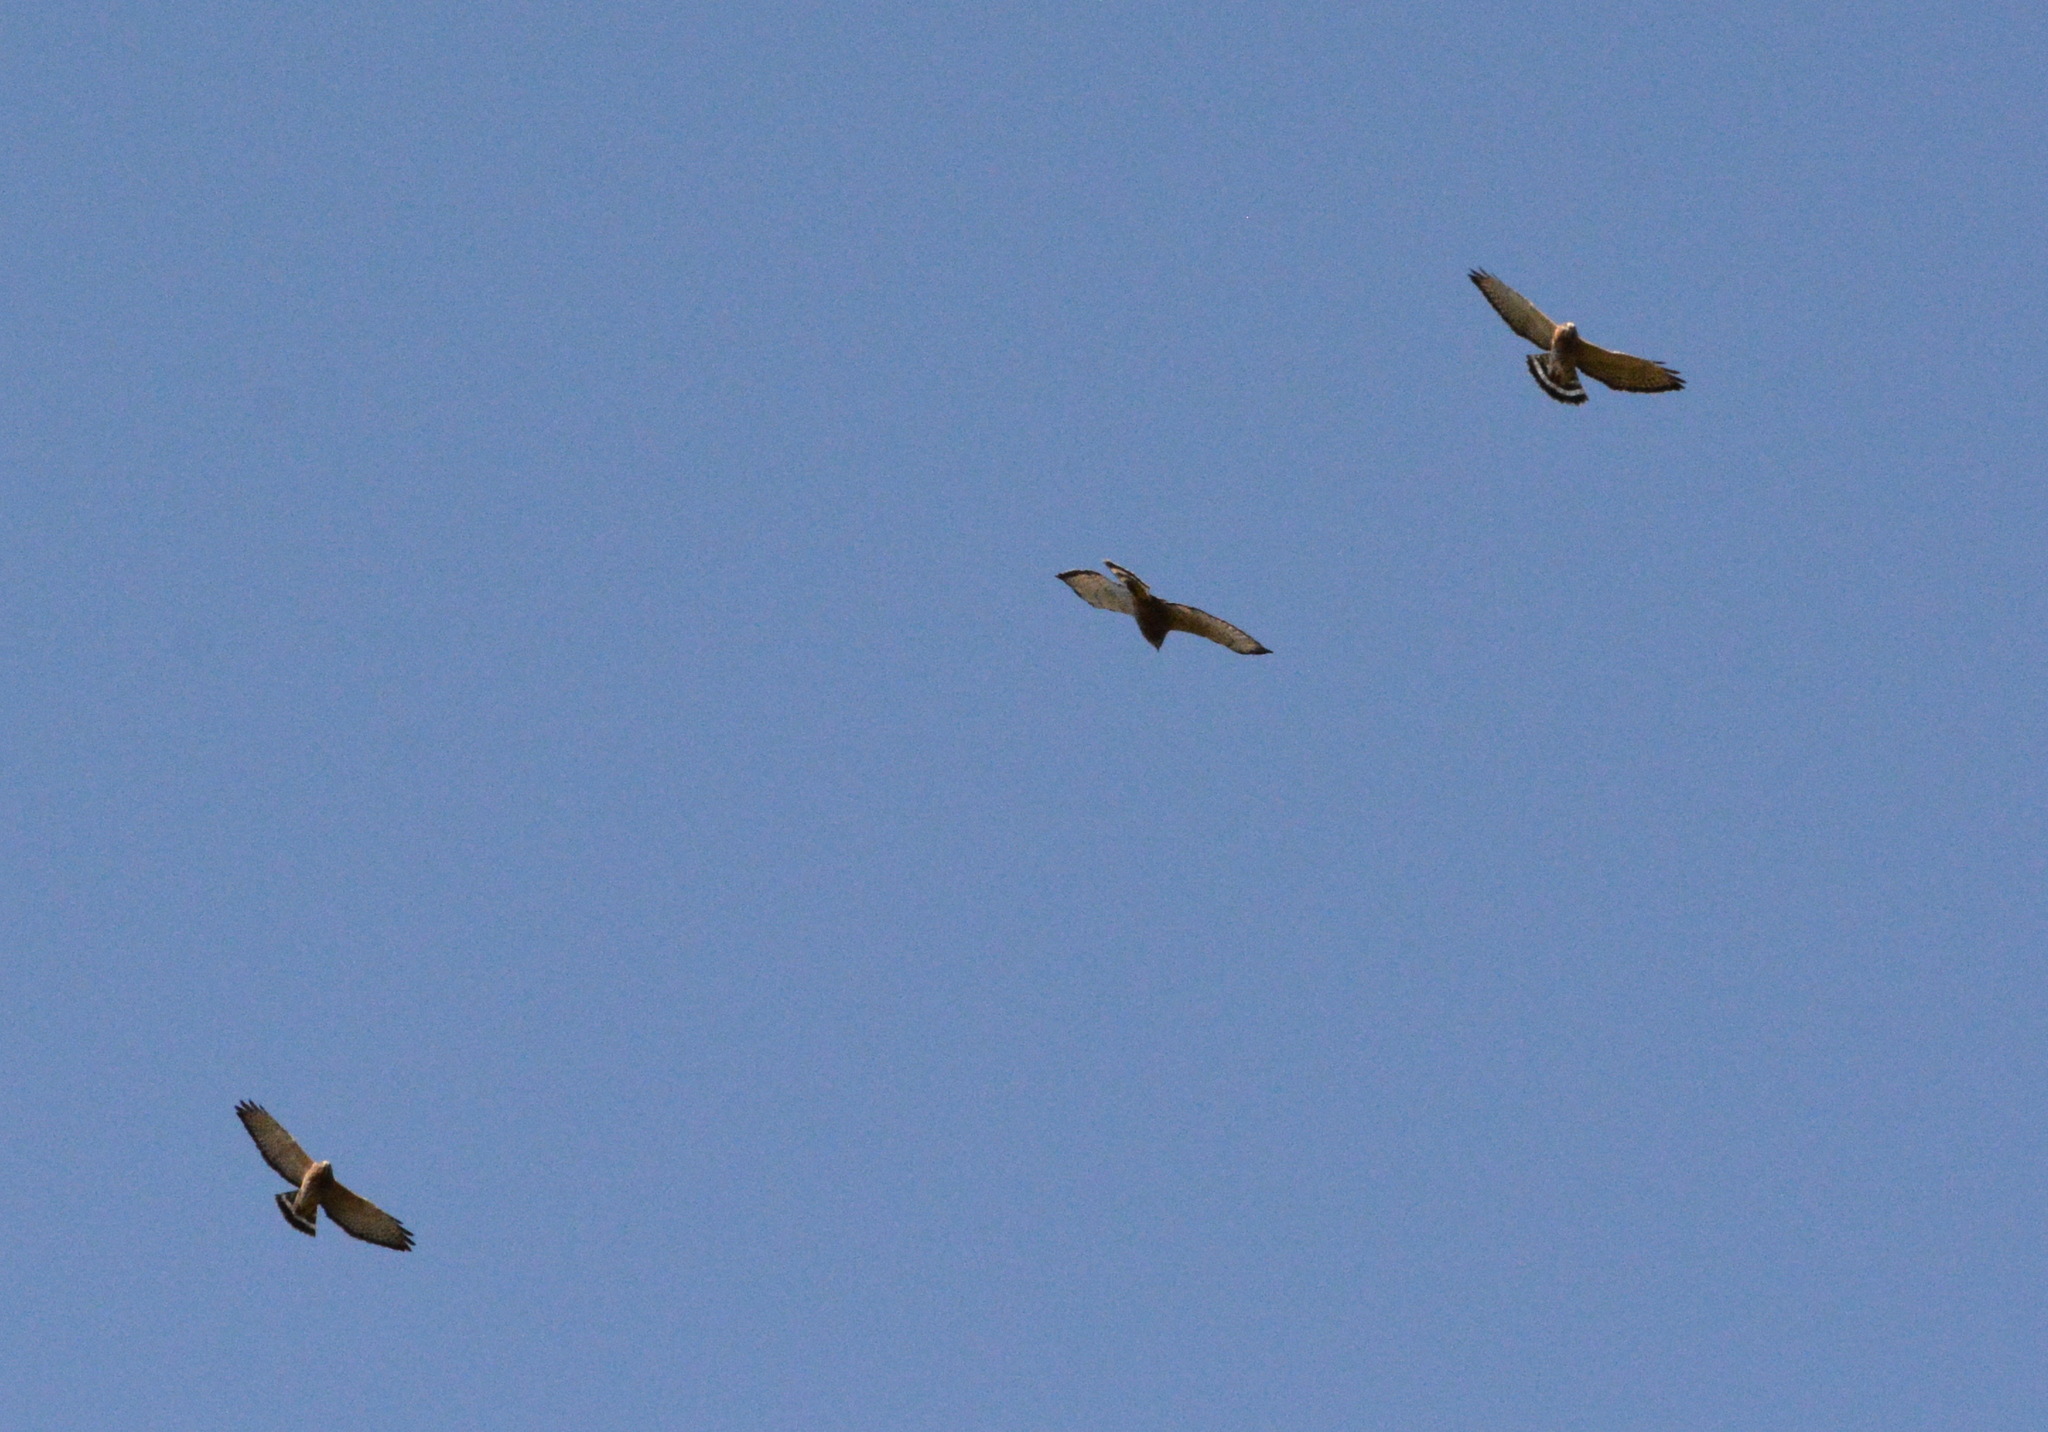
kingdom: Animalia
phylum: Chordata
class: Aves
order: Accipitriformes
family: Accipitridae
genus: Buteo
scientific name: Buteo platypterus
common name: Broad-winged hawk
